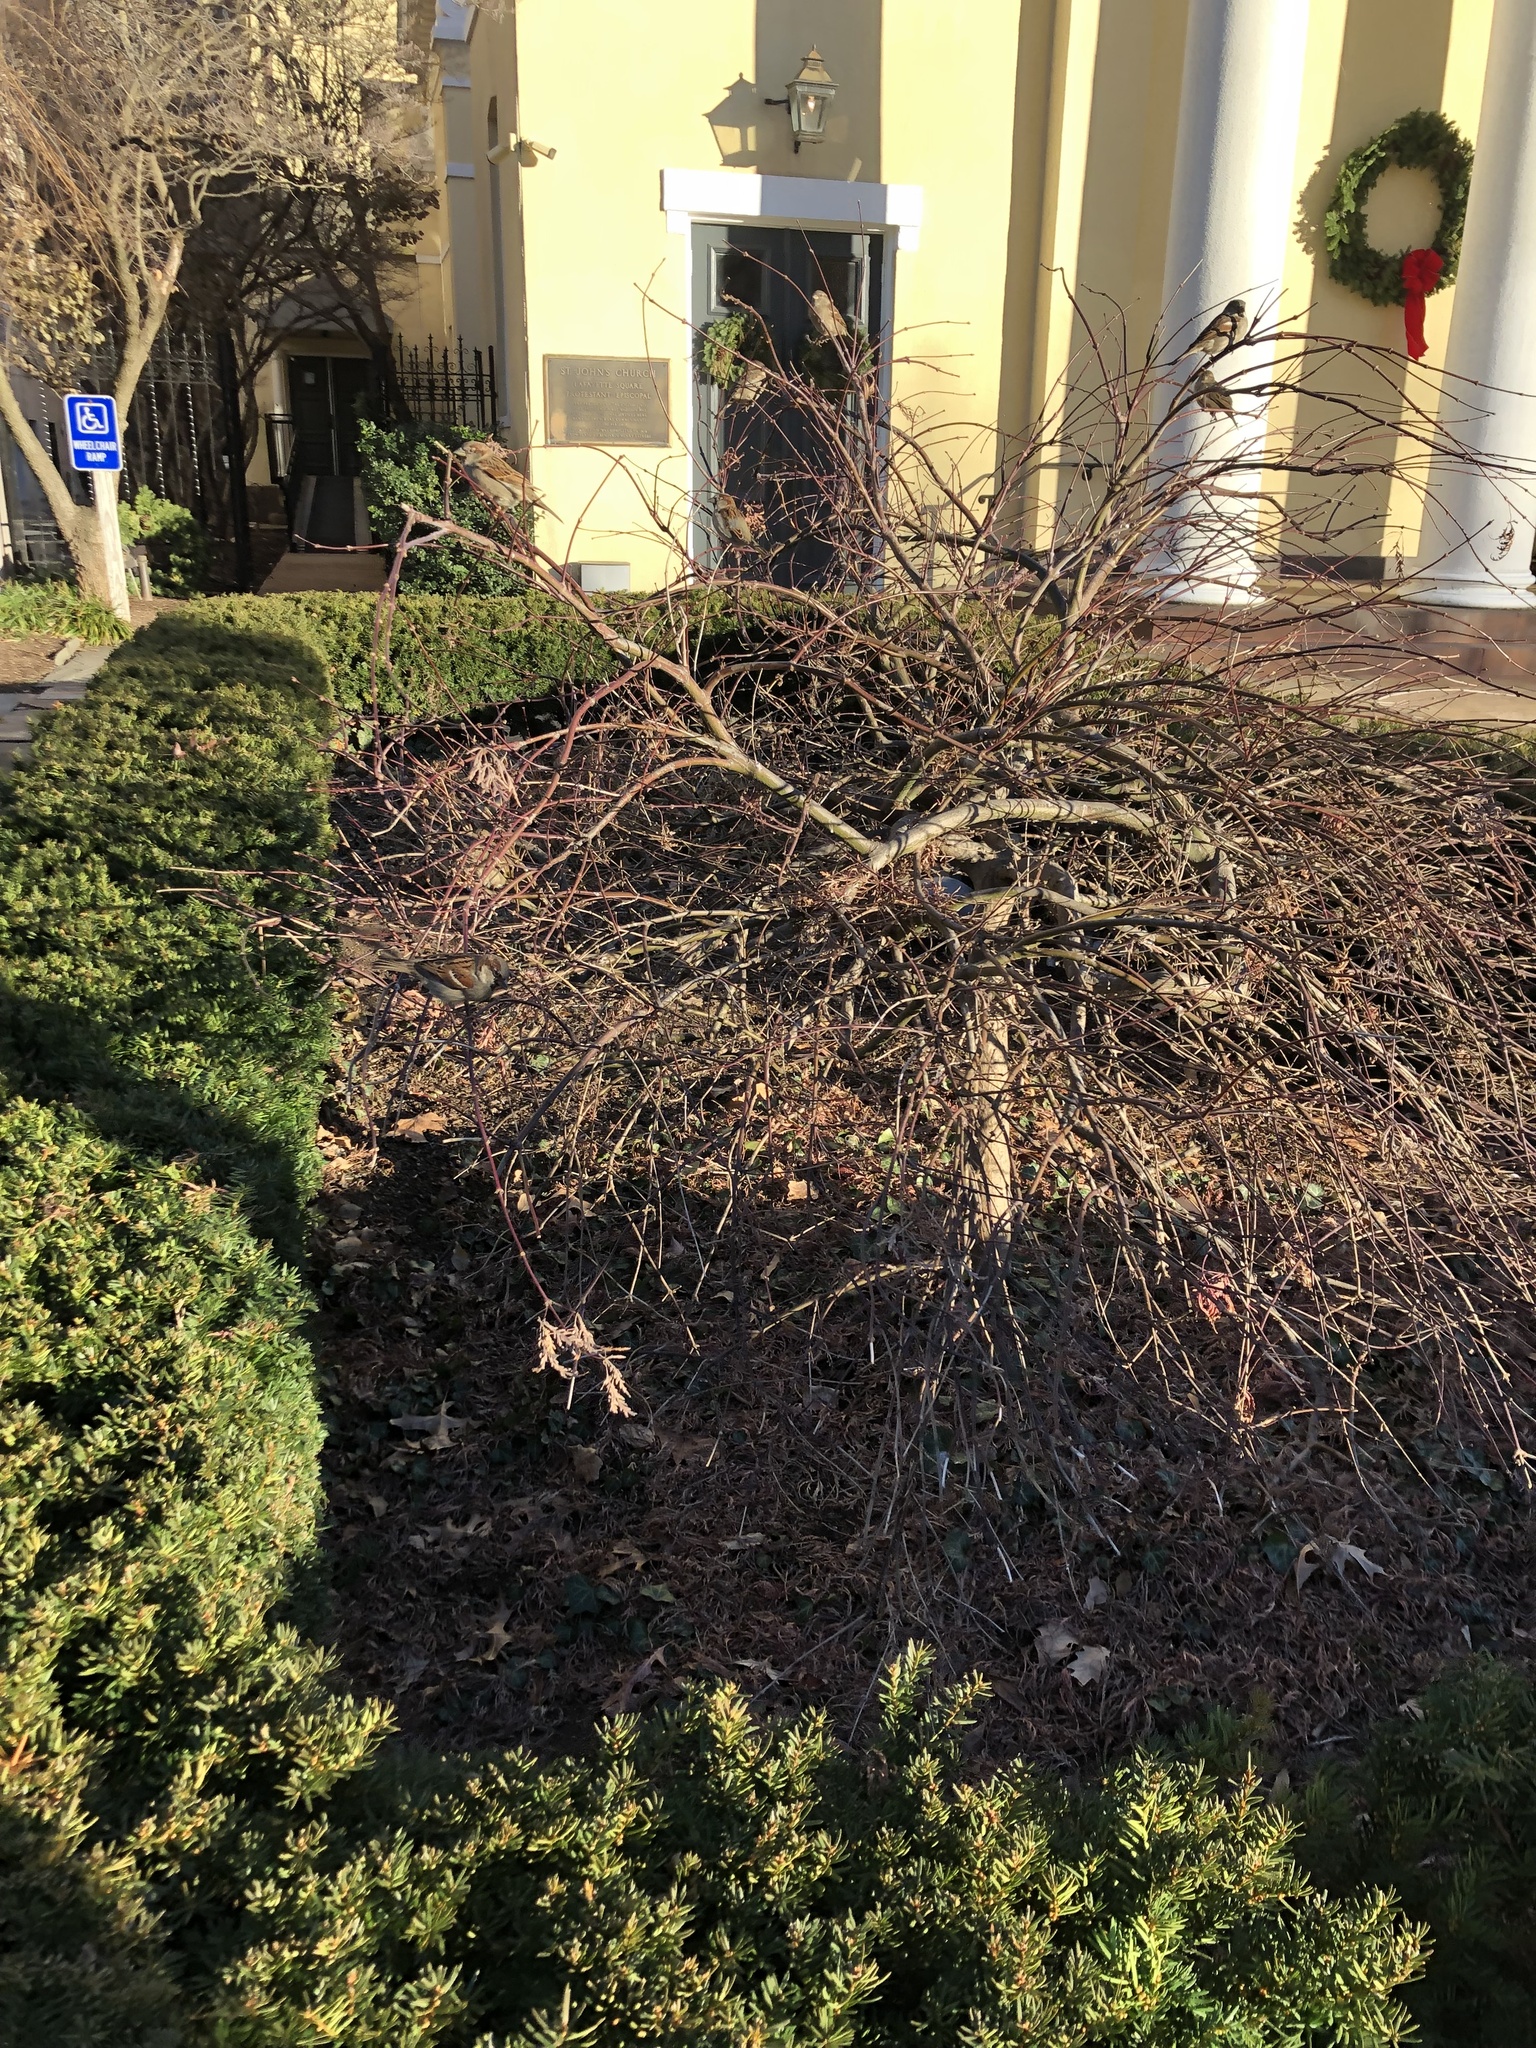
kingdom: Animalia
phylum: Chordata
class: Aves
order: Passeriformes
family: Passeridae
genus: Passer
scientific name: Passer domesticus
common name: House sparrow
